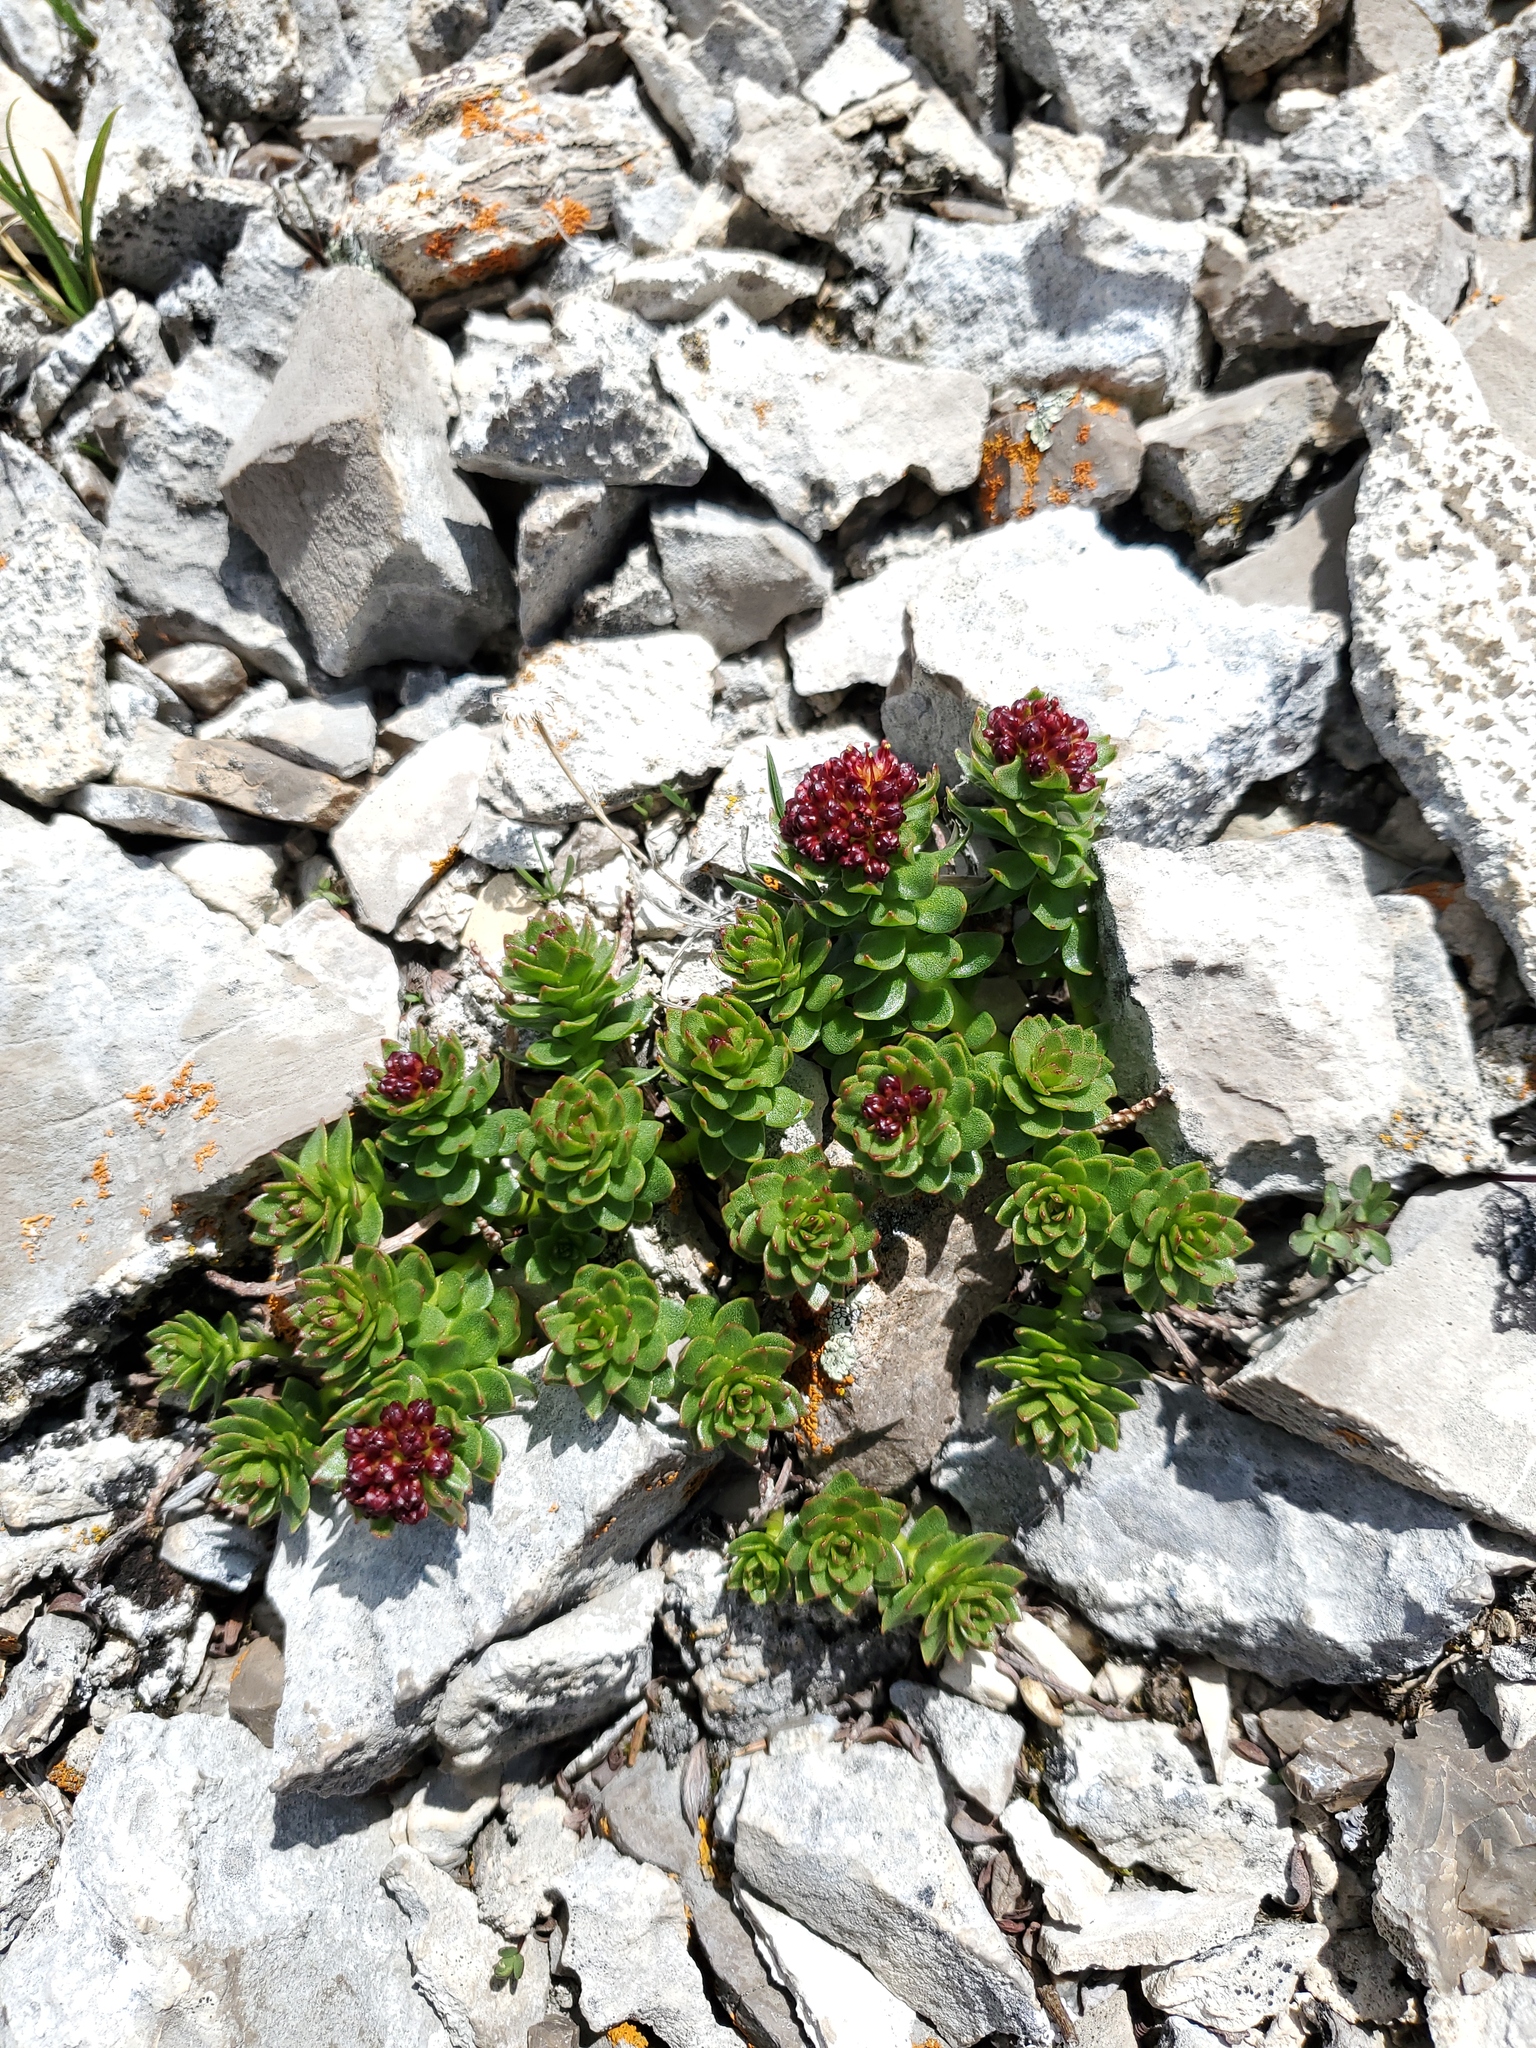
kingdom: Plantae
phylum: Tracheophyta
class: Magnoliopsida
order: Saxifragales
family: Crassulaceae
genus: Rhodiola
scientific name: Rhodiola integrifolia
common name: Western roseroot
